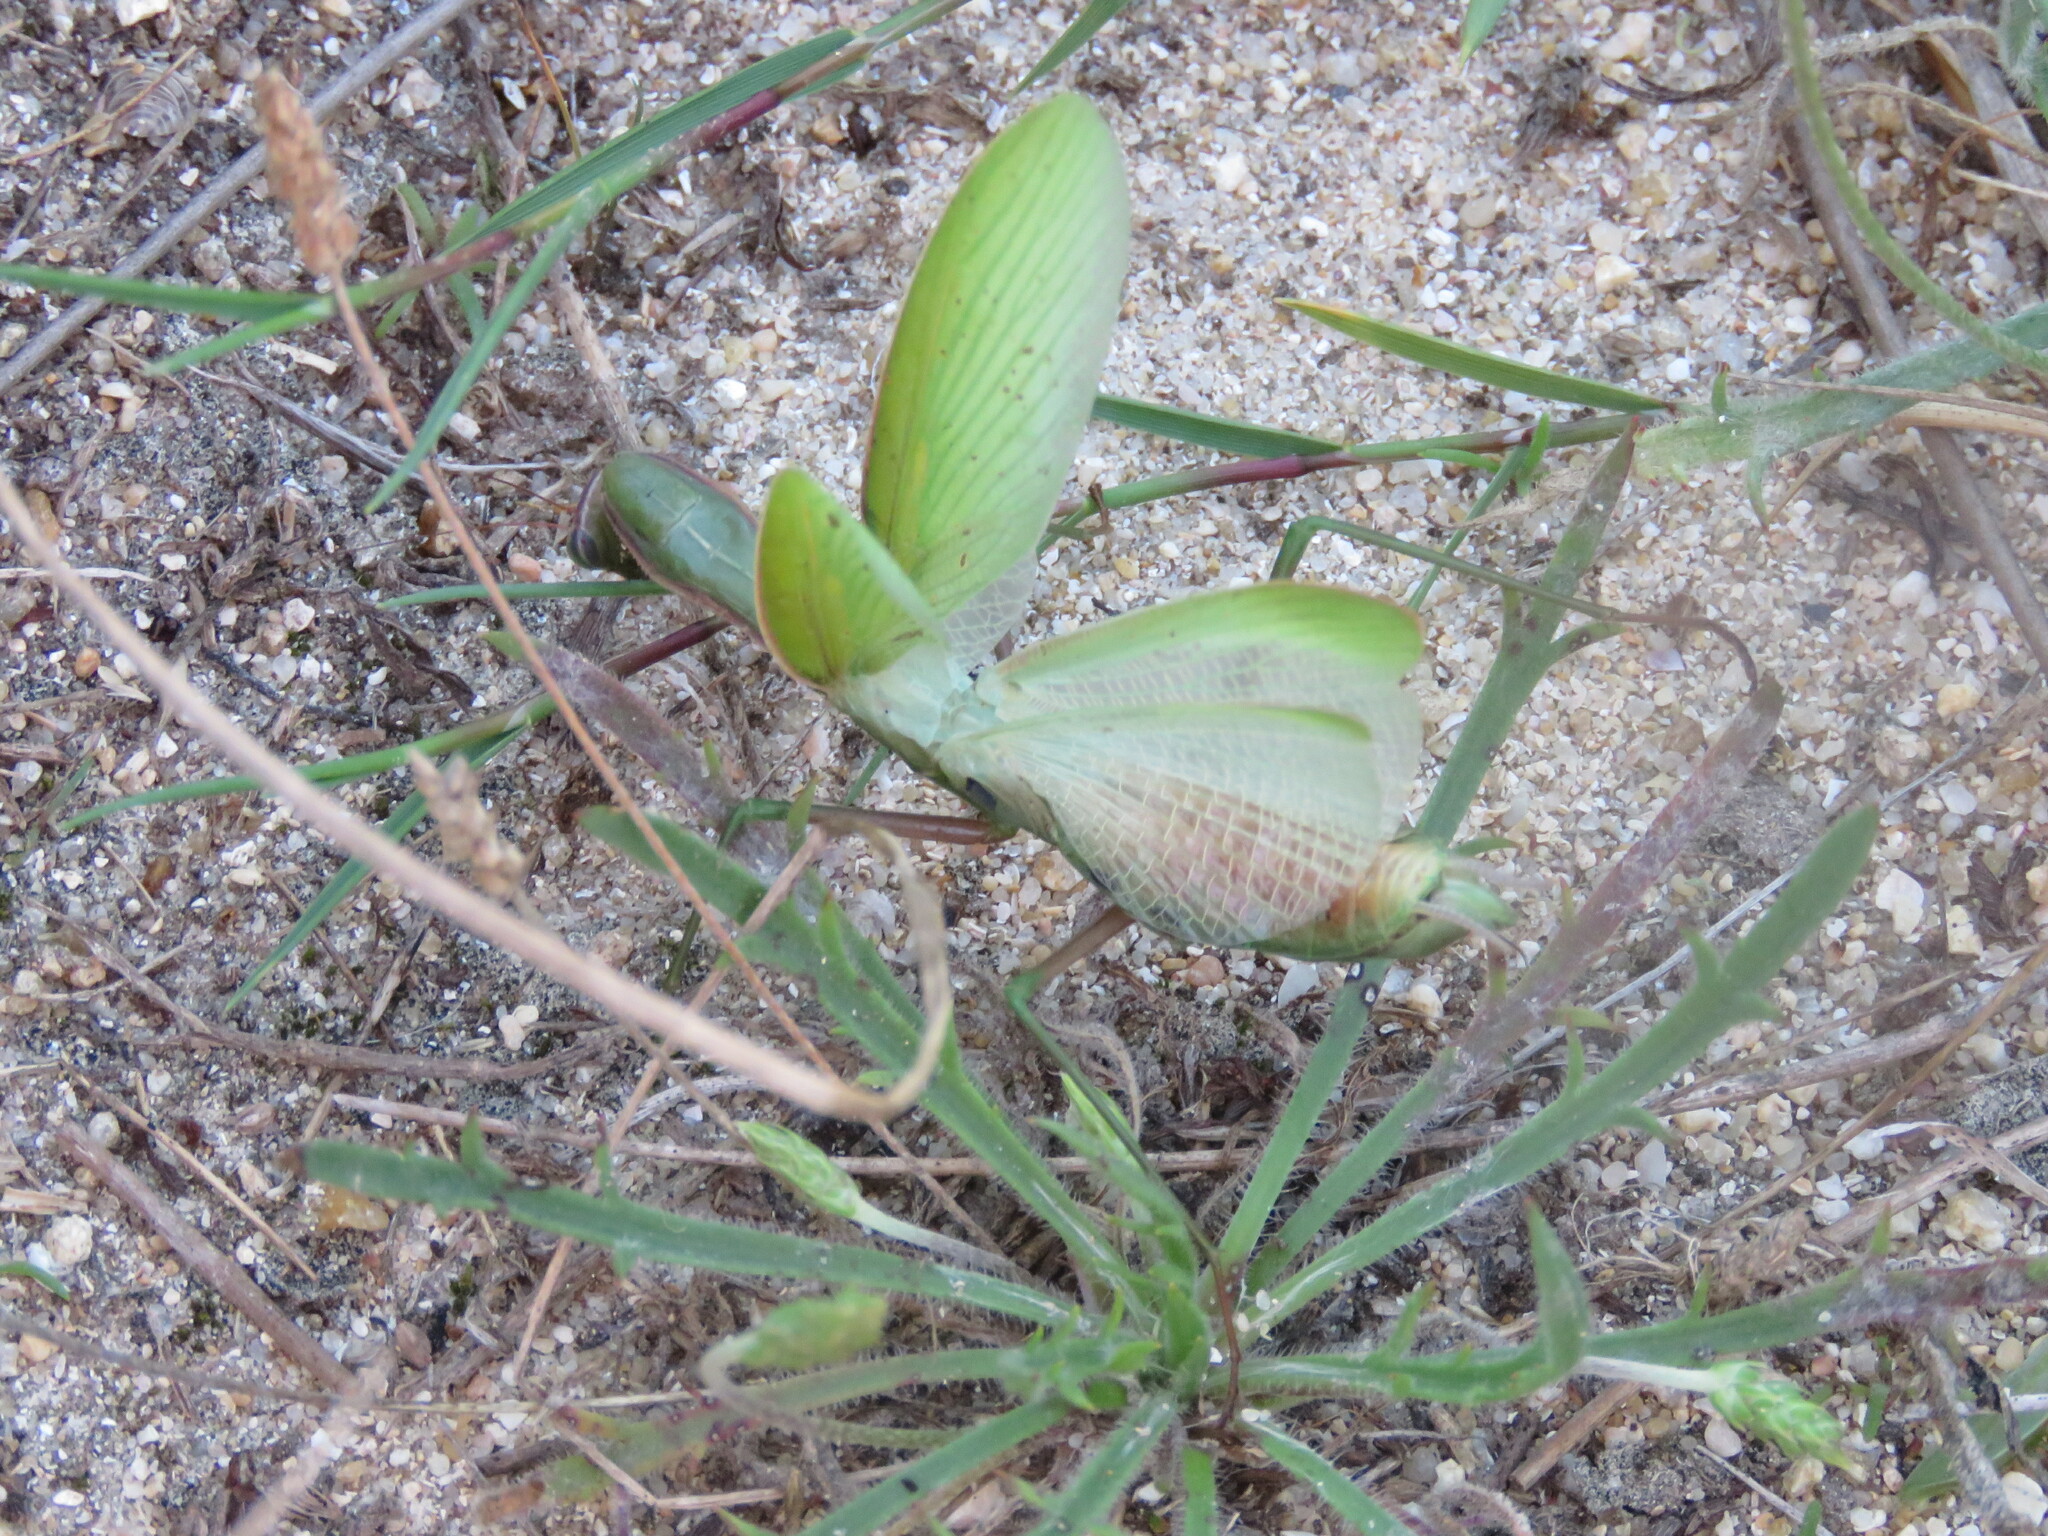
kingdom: Animalia
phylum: Arthropoda
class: Insecta
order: Mantodea
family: Mantidae
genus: Mantis
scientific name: Mantis religiosa
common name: Praying mantis
